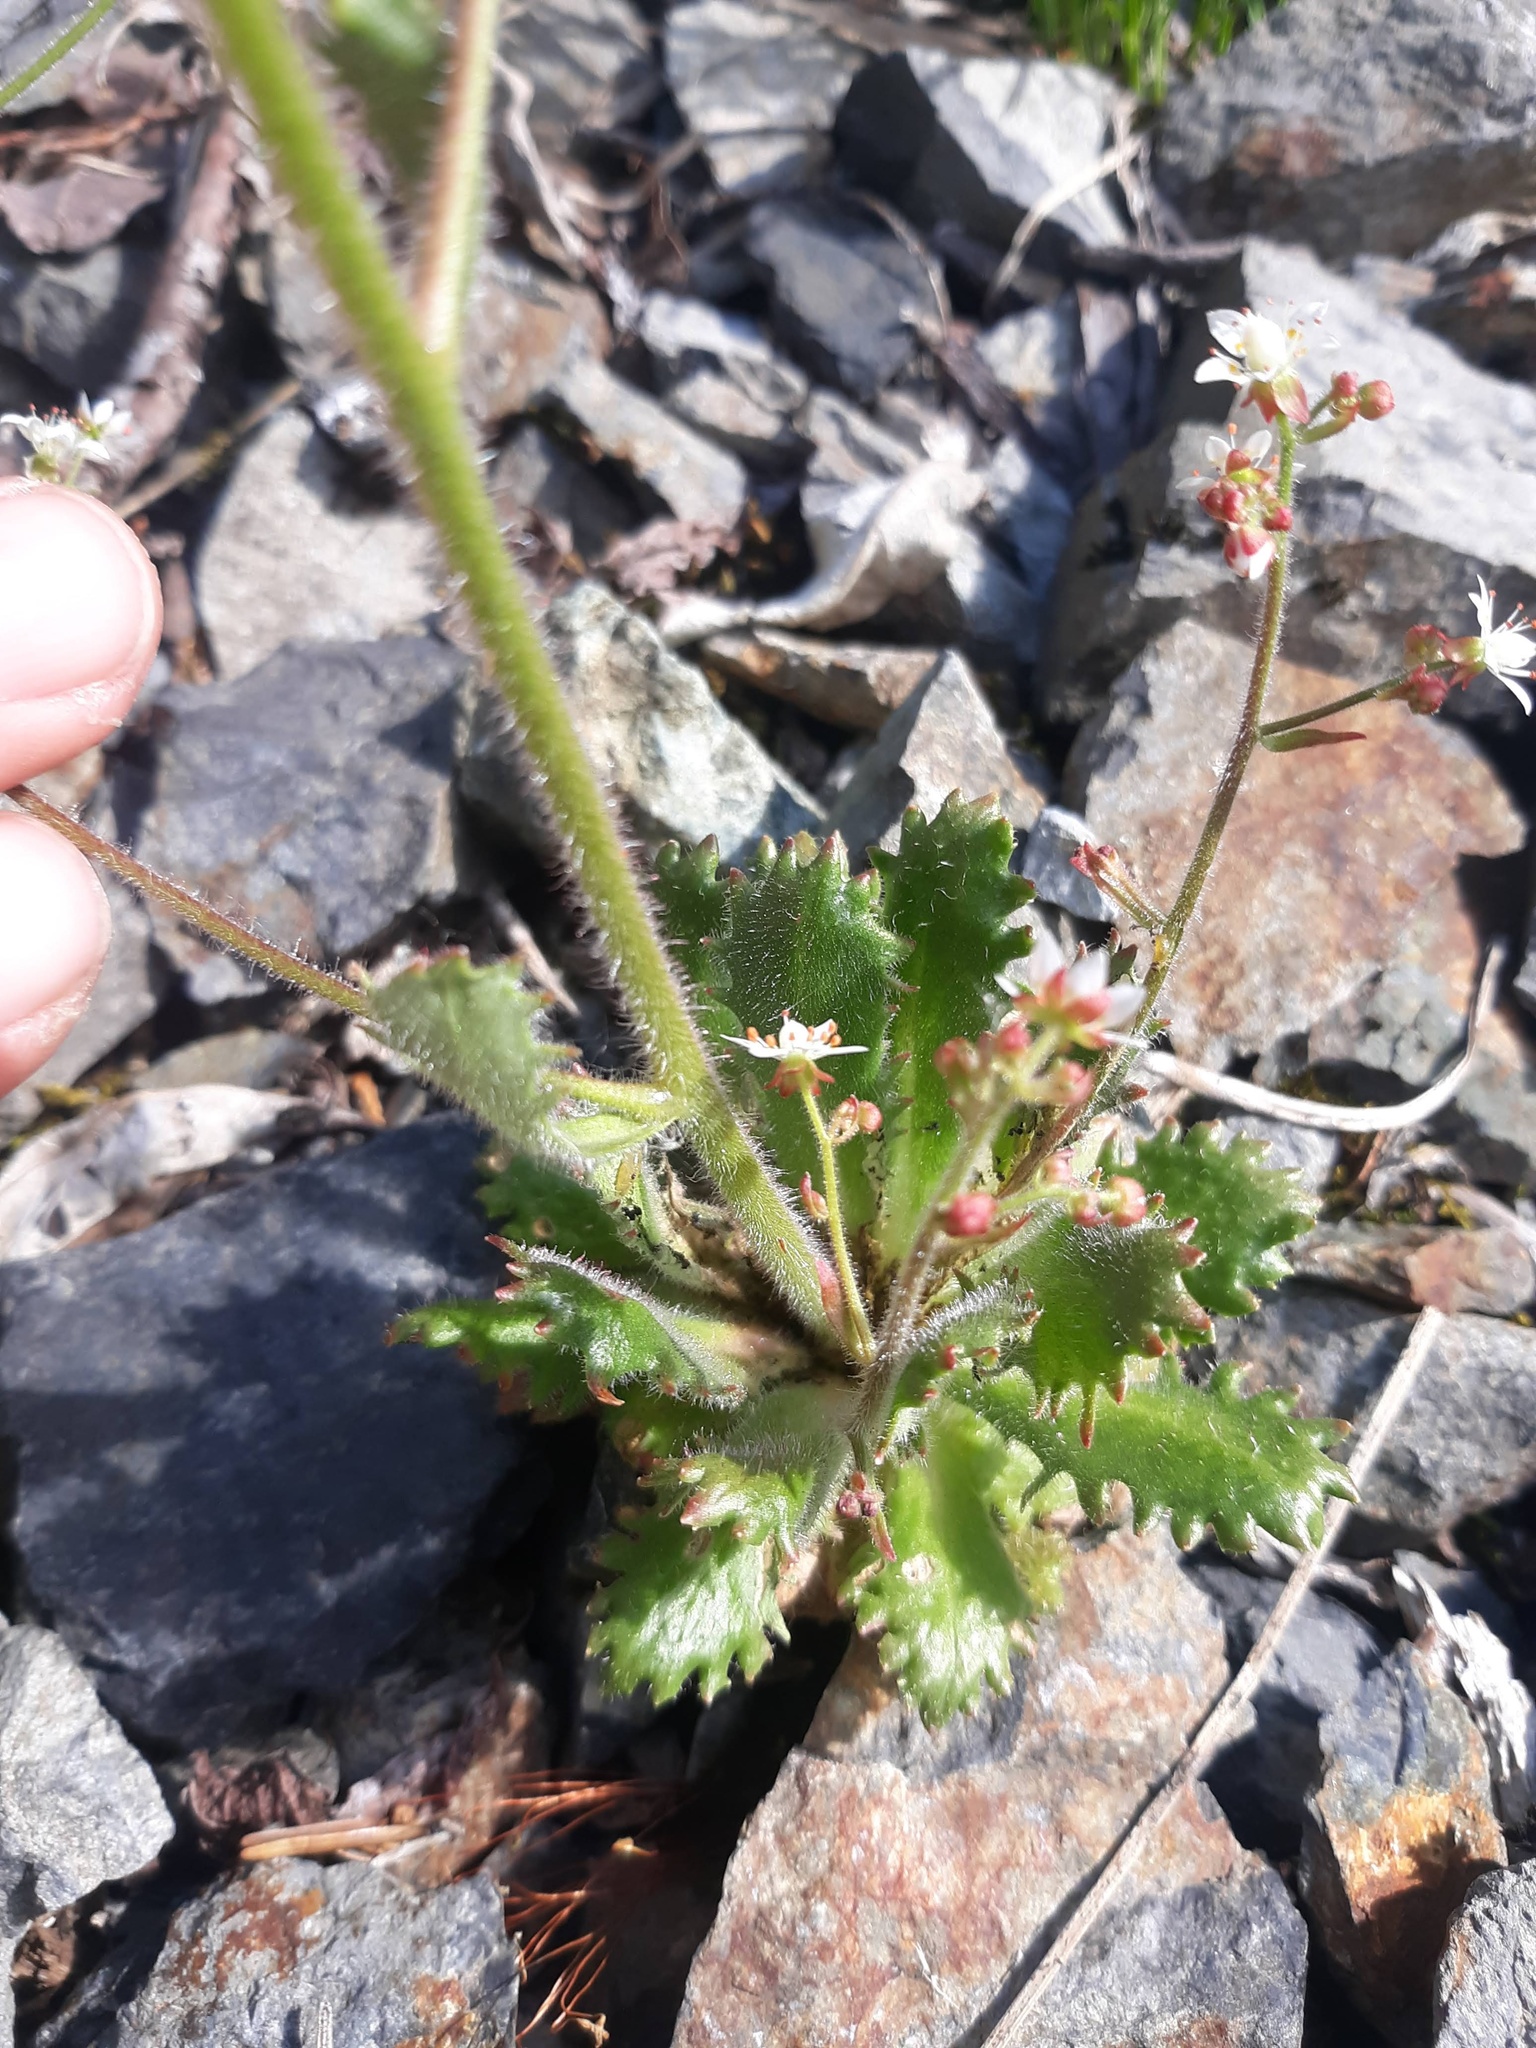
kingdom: Plantae
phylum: Tracheophyta
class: Magnoliopsida
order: Saxifragales
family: Saxifragaceae
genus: Micranthes
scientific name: Micranthes ferruginea
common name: Rusty saxifrage
